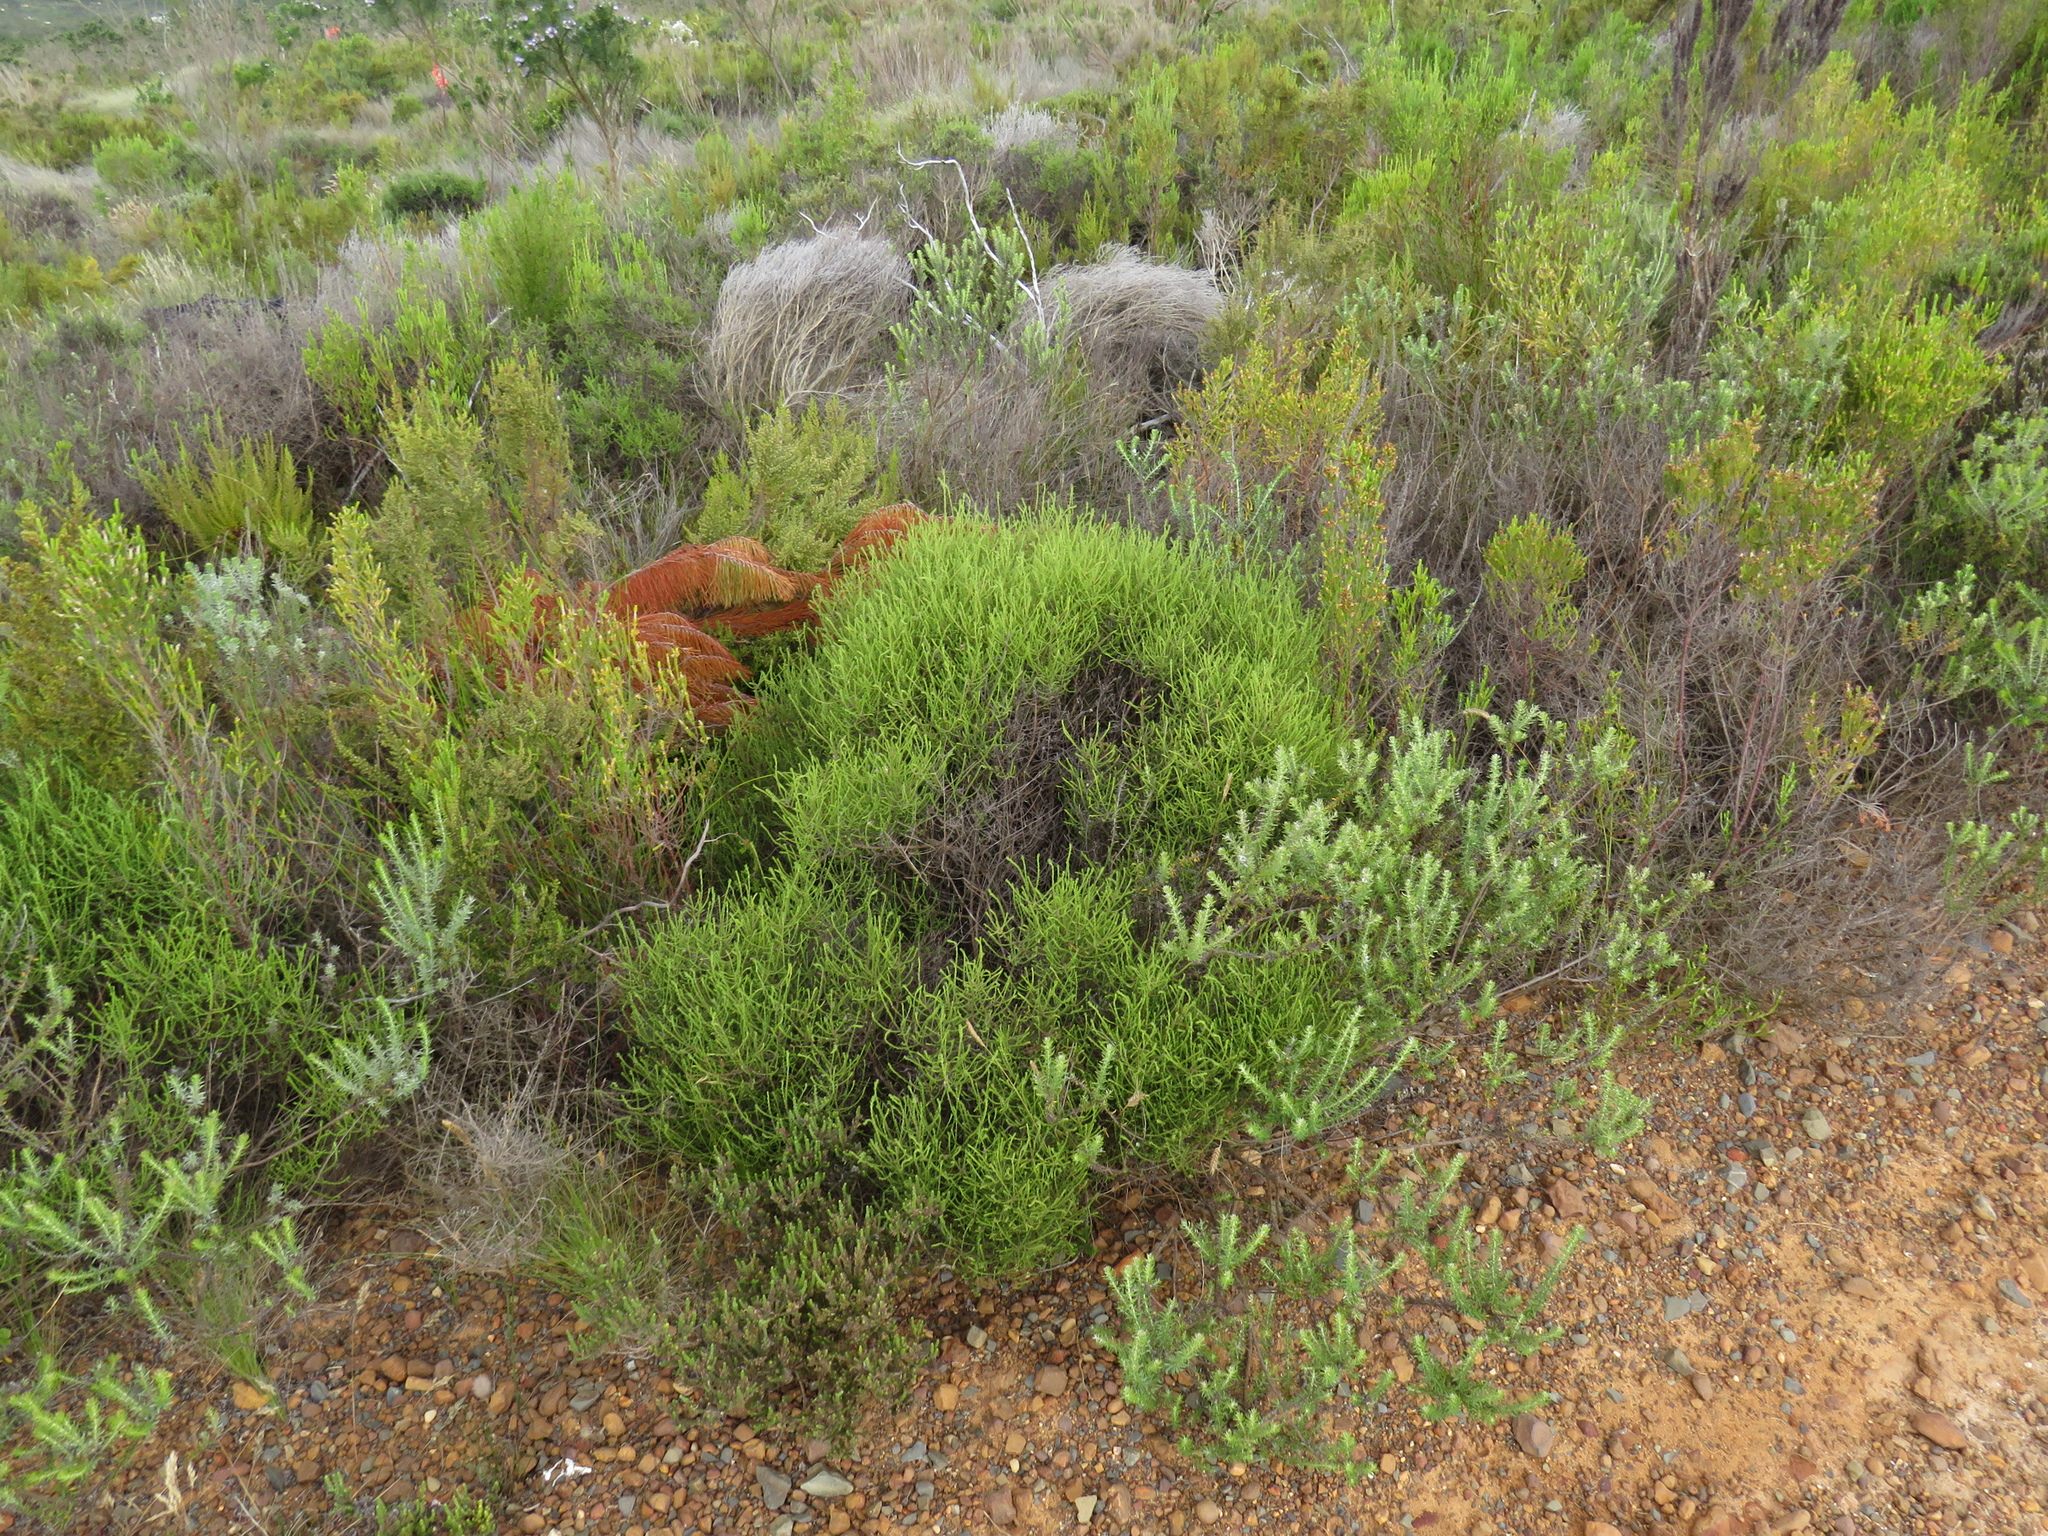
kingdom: Plantae
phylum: Tracheophyta
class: Magnoliopsida
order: Asterales
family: Asteraceae
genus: Myrovernix
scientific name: Myrovernix scaber
